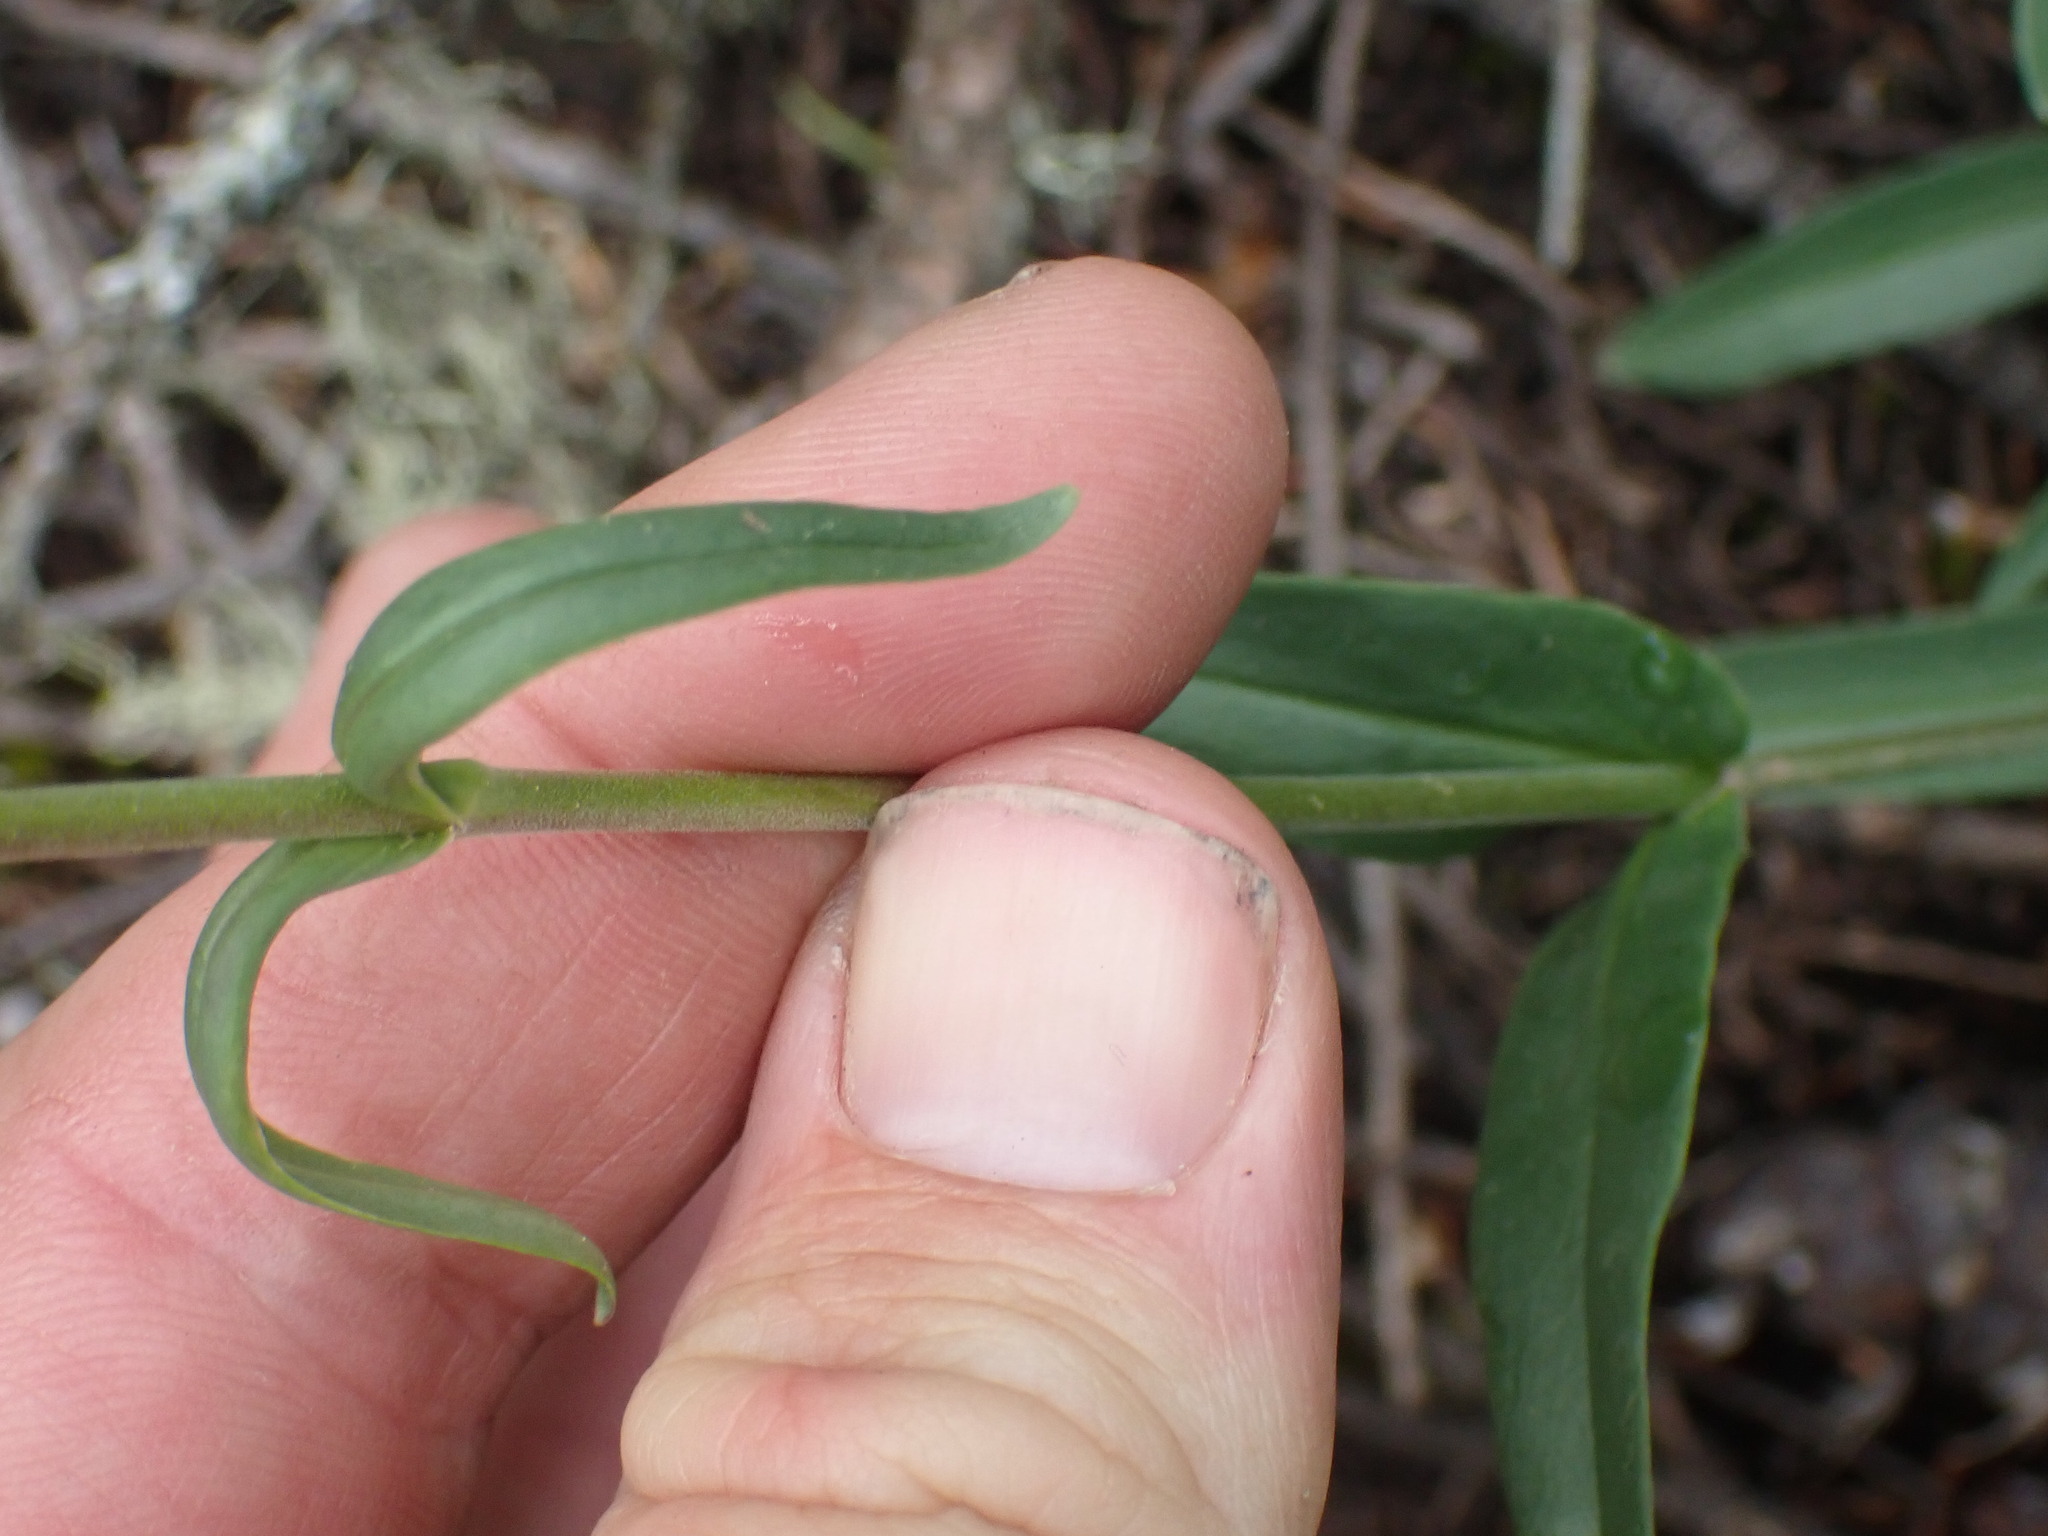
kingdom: Plantae
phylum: Tracheophyta
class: Magnoliopsida
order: Lamiales
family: Plantaginaceae
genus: Penstemon
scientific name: Penstemon confertus
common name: Lesser yellow beardtongue
